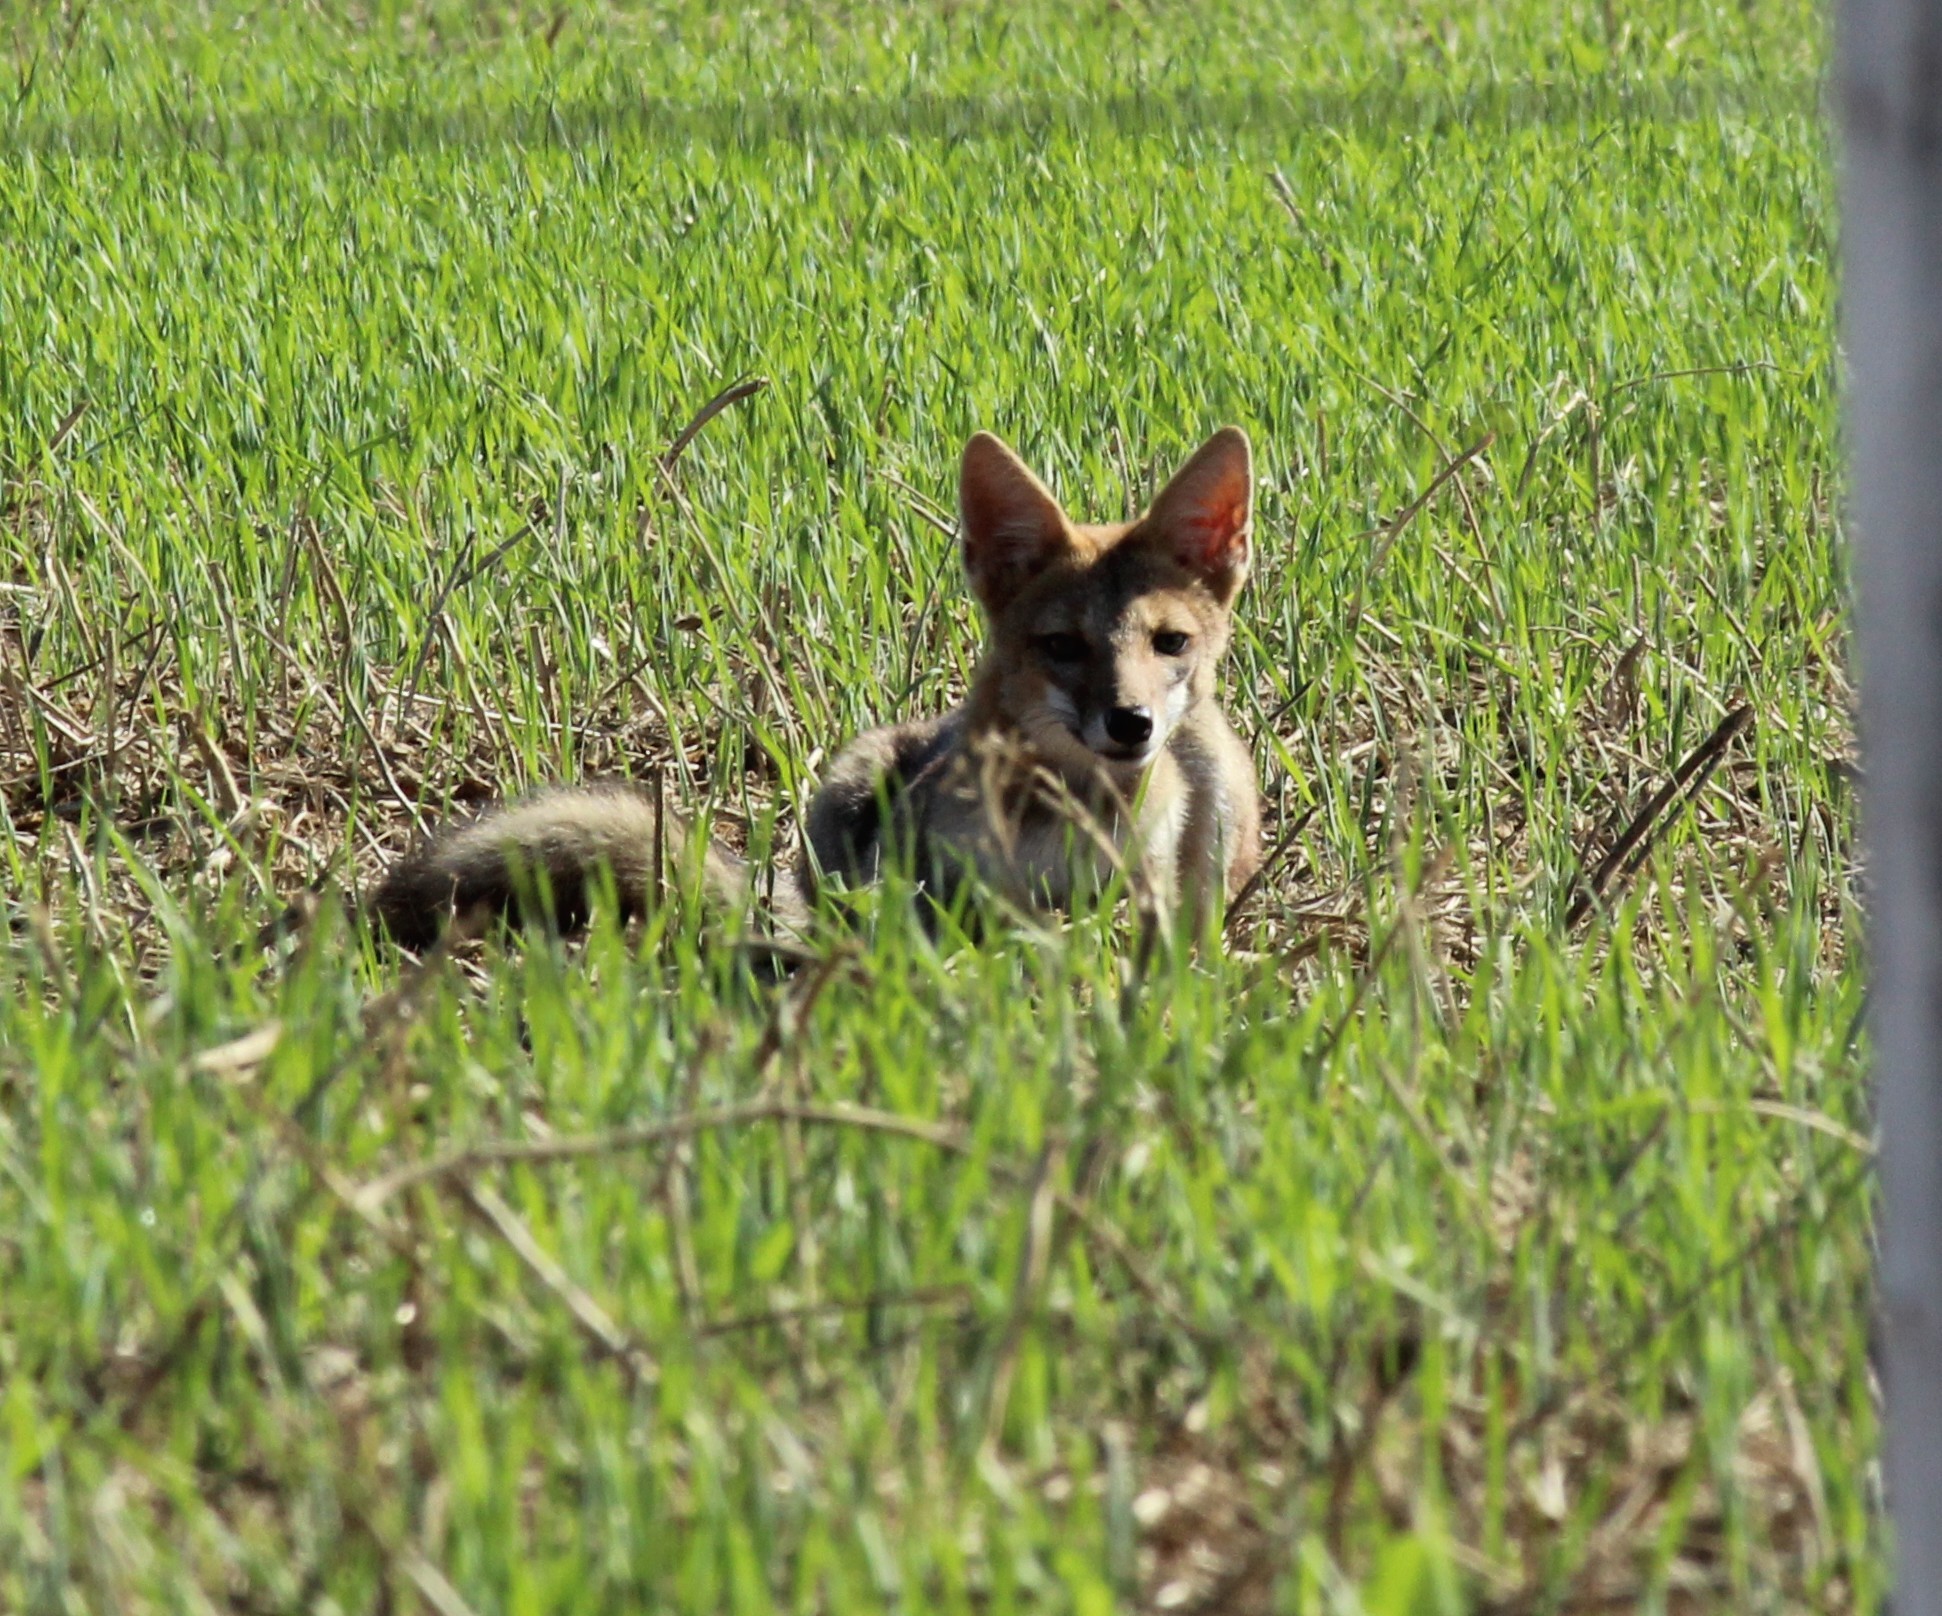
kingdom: Animalia
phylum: Chordata
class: Mammalia
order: Carnivora
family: Canidae
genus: Lycalopex
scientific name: Lycalopex gymnocercus
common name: Pampas fox
